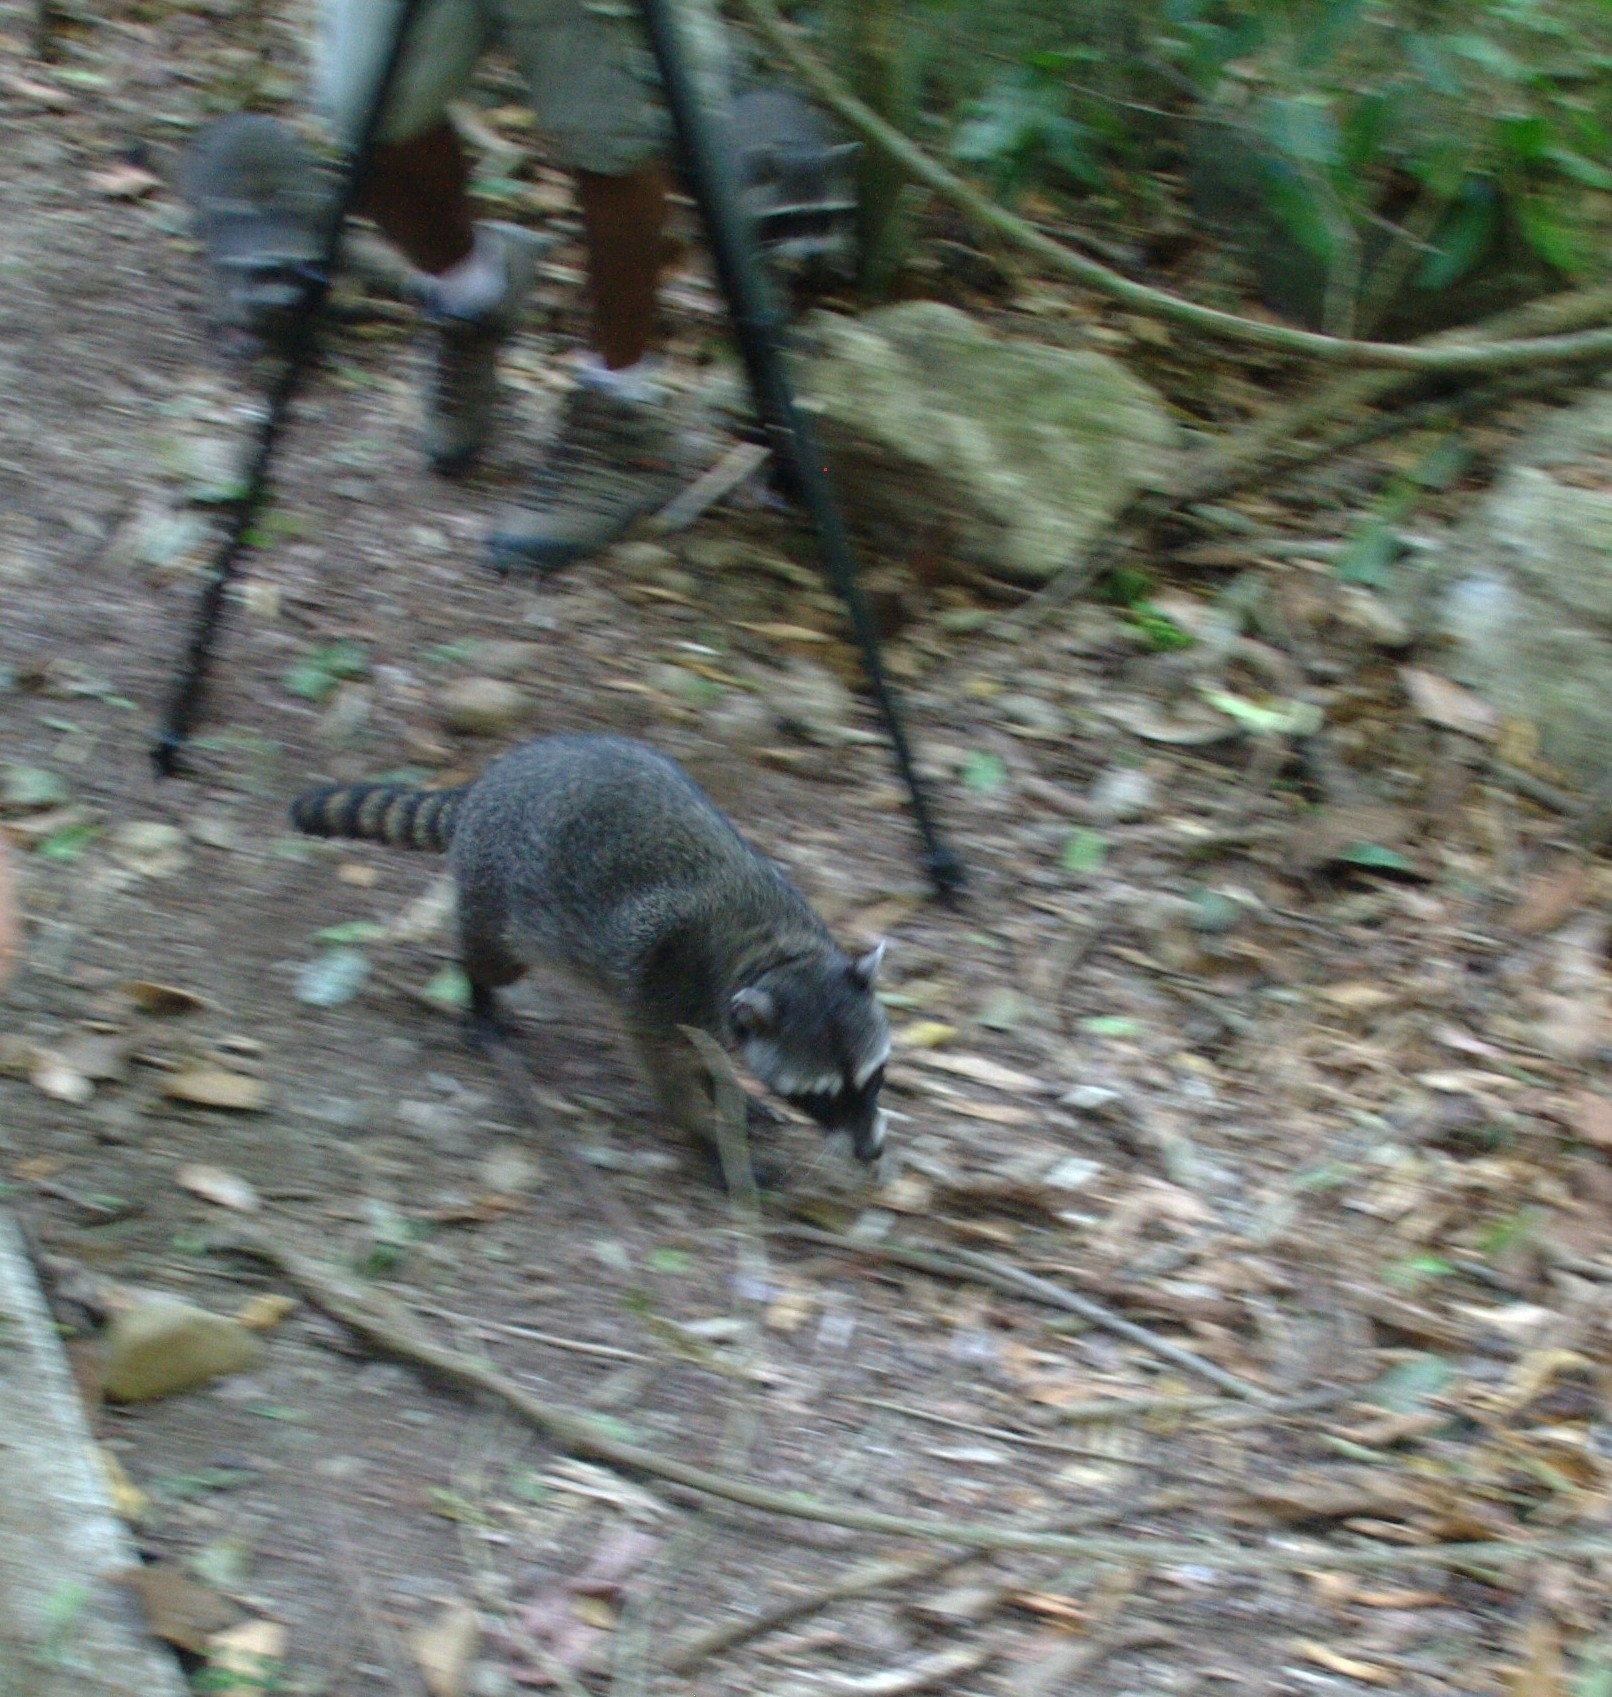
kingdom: Animalia
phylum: Chordata
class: Mammalia
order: Carnivora
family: Procyonidae
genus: Procyon
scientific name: Procyon lotor
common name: Raccoon
